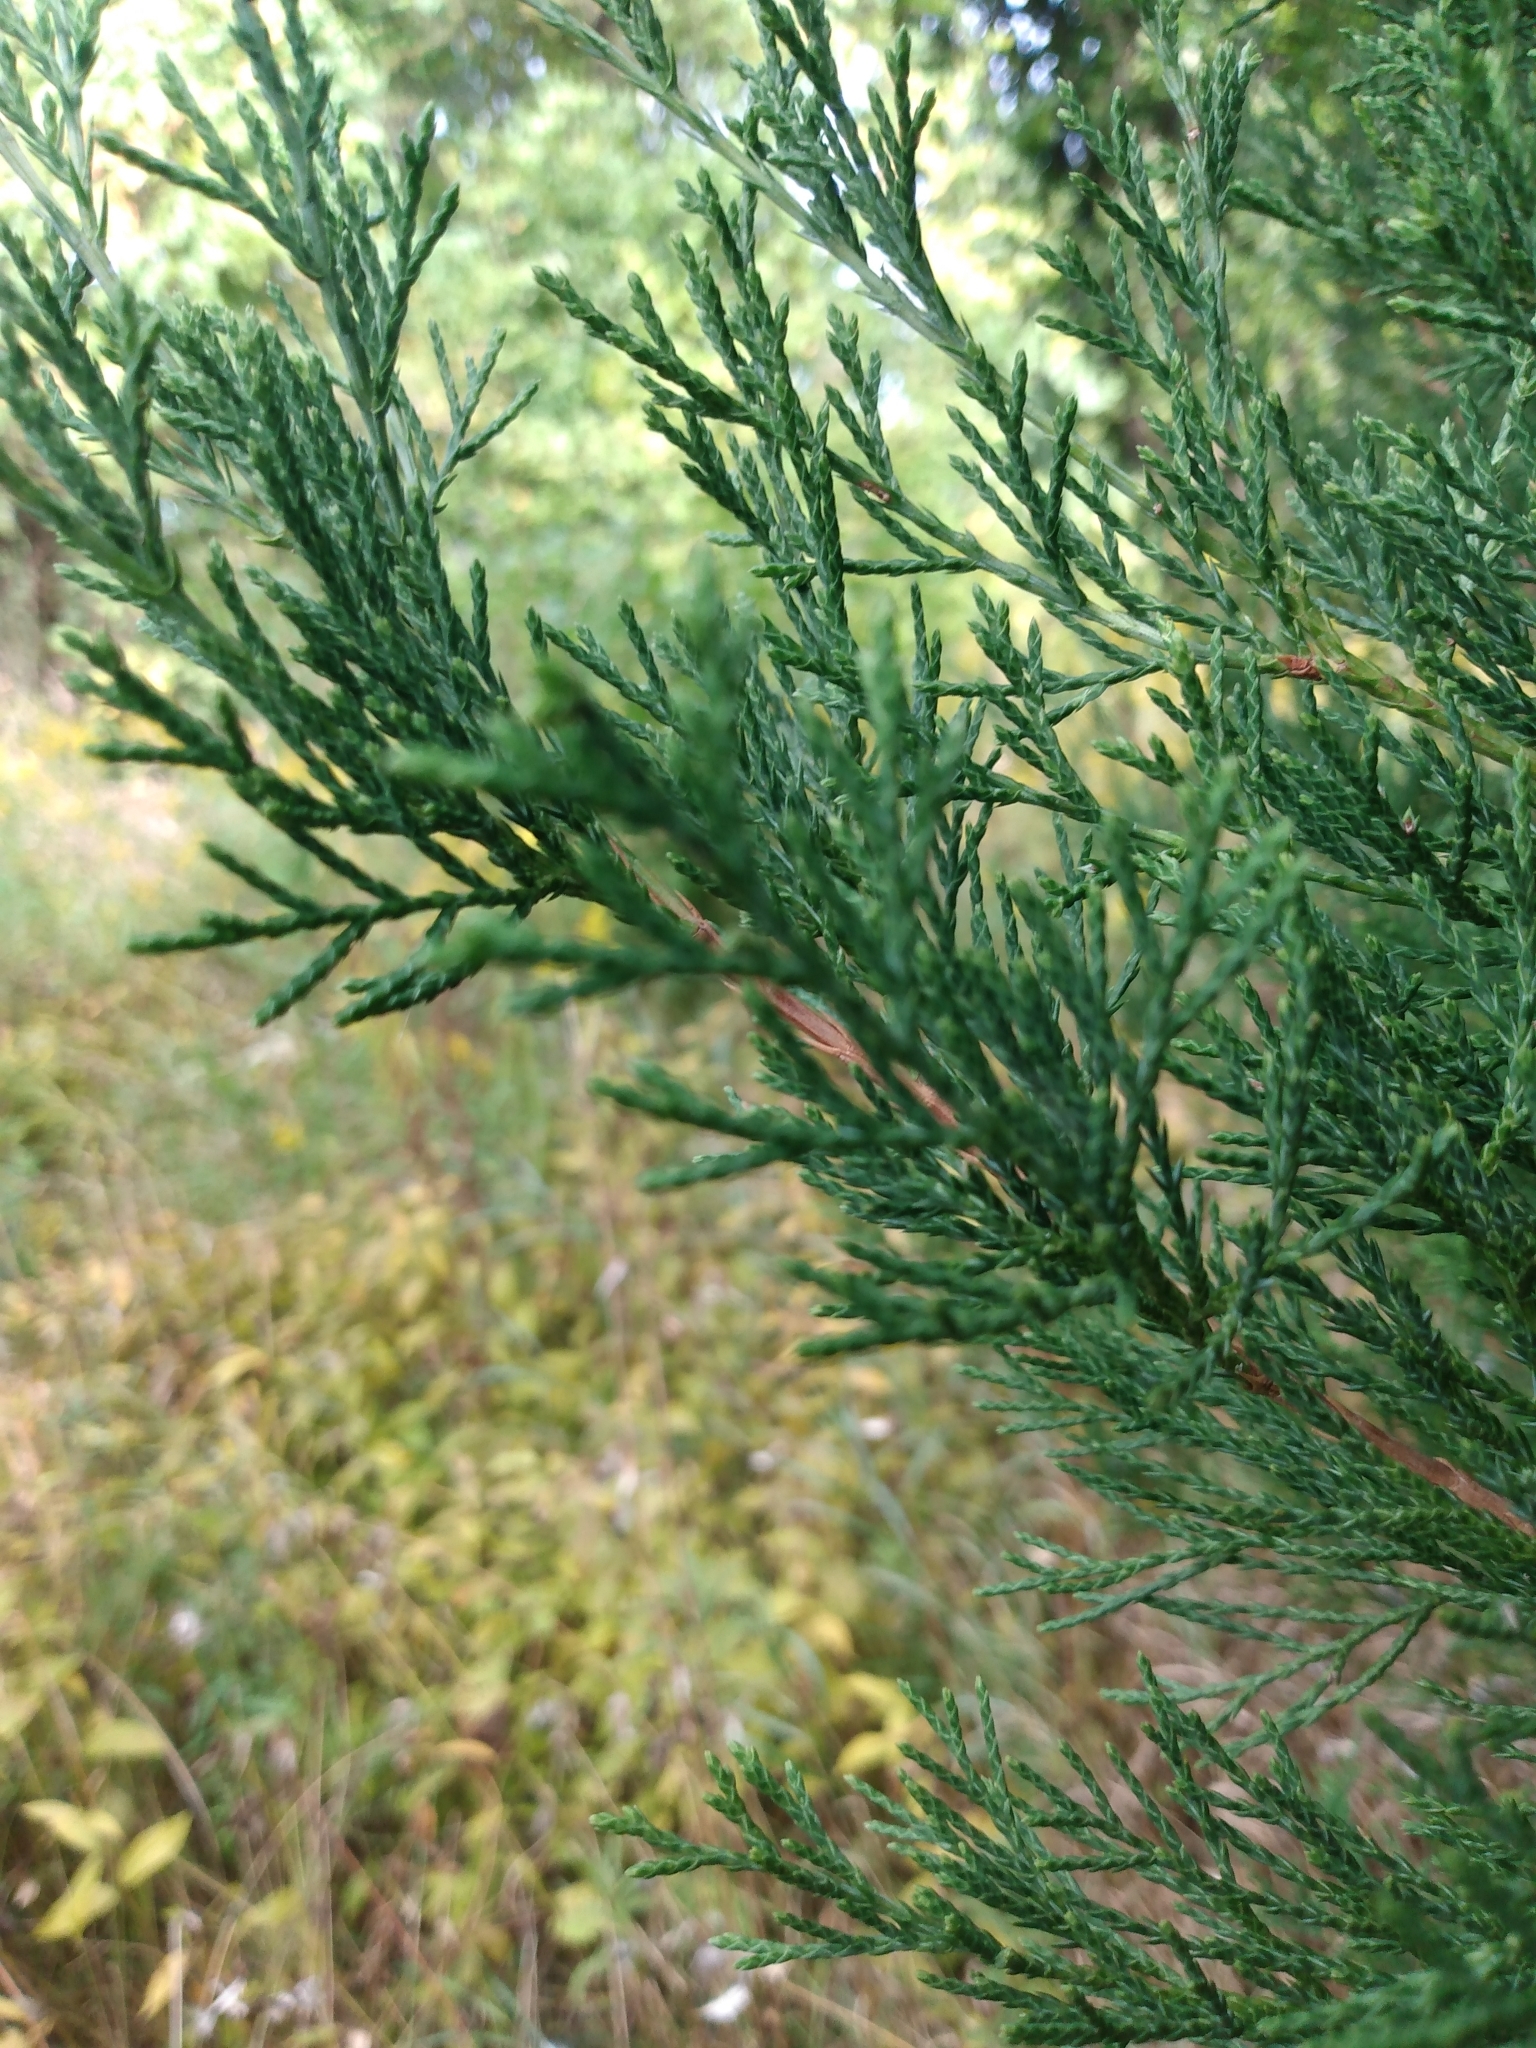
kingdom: Plantae
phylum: Tracheophyta
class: Pinopsida
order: Pinales
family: Cupressaceae
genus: Juniperus
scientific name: Juniperus virginiana
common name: Red juniper
